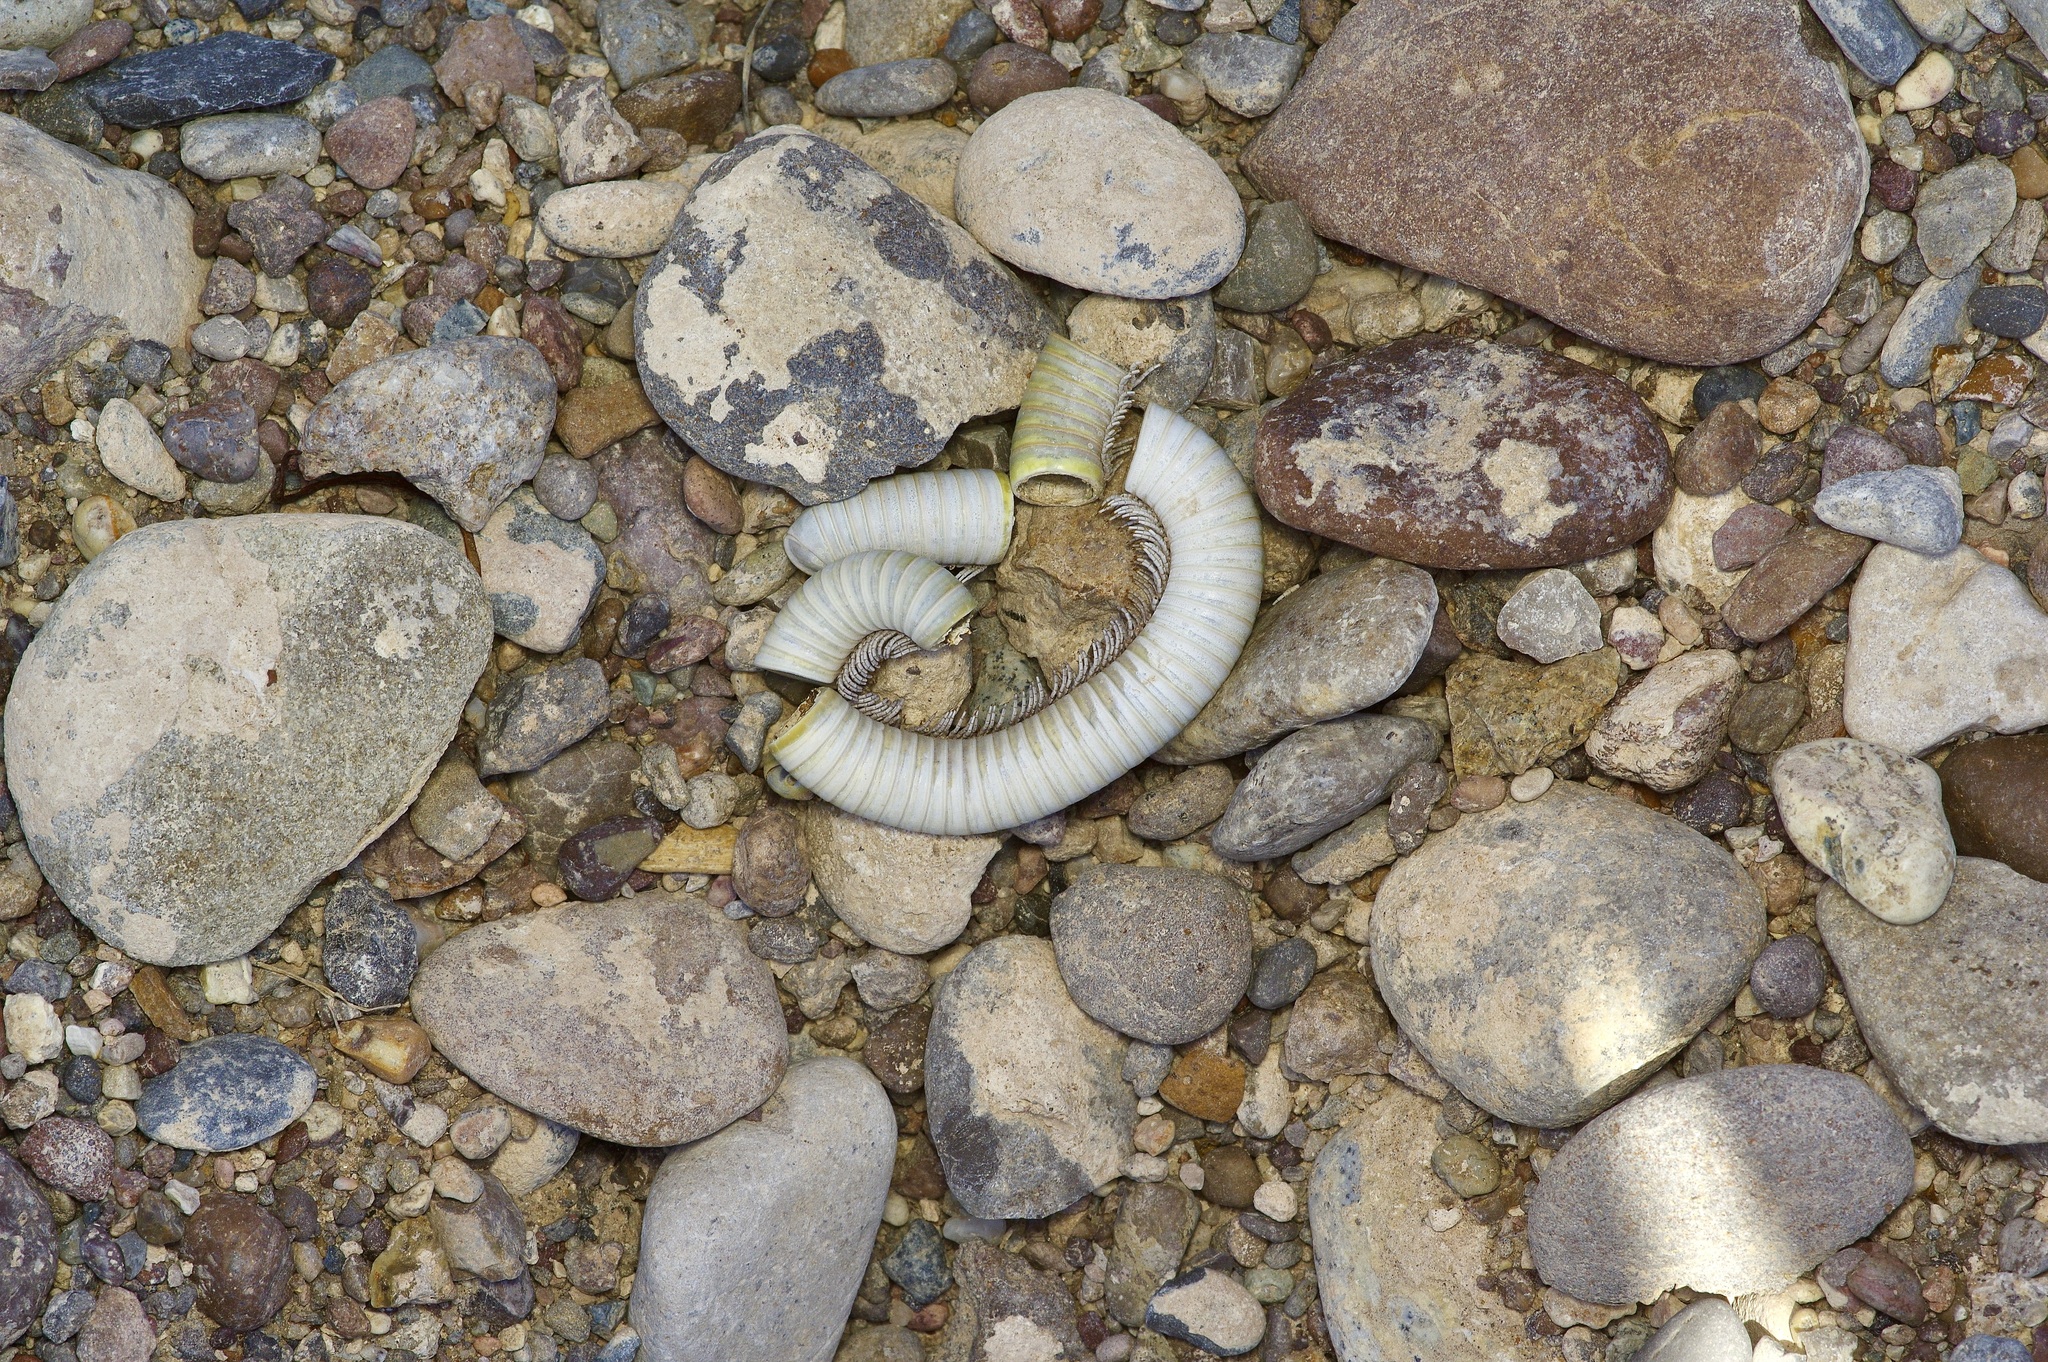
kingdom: Animalia
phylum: Arthropoda
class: Diplopoda
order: Spirostreptida
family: Spirostreptidae
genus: Orthoporus
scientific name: Orthoporus ornatus
